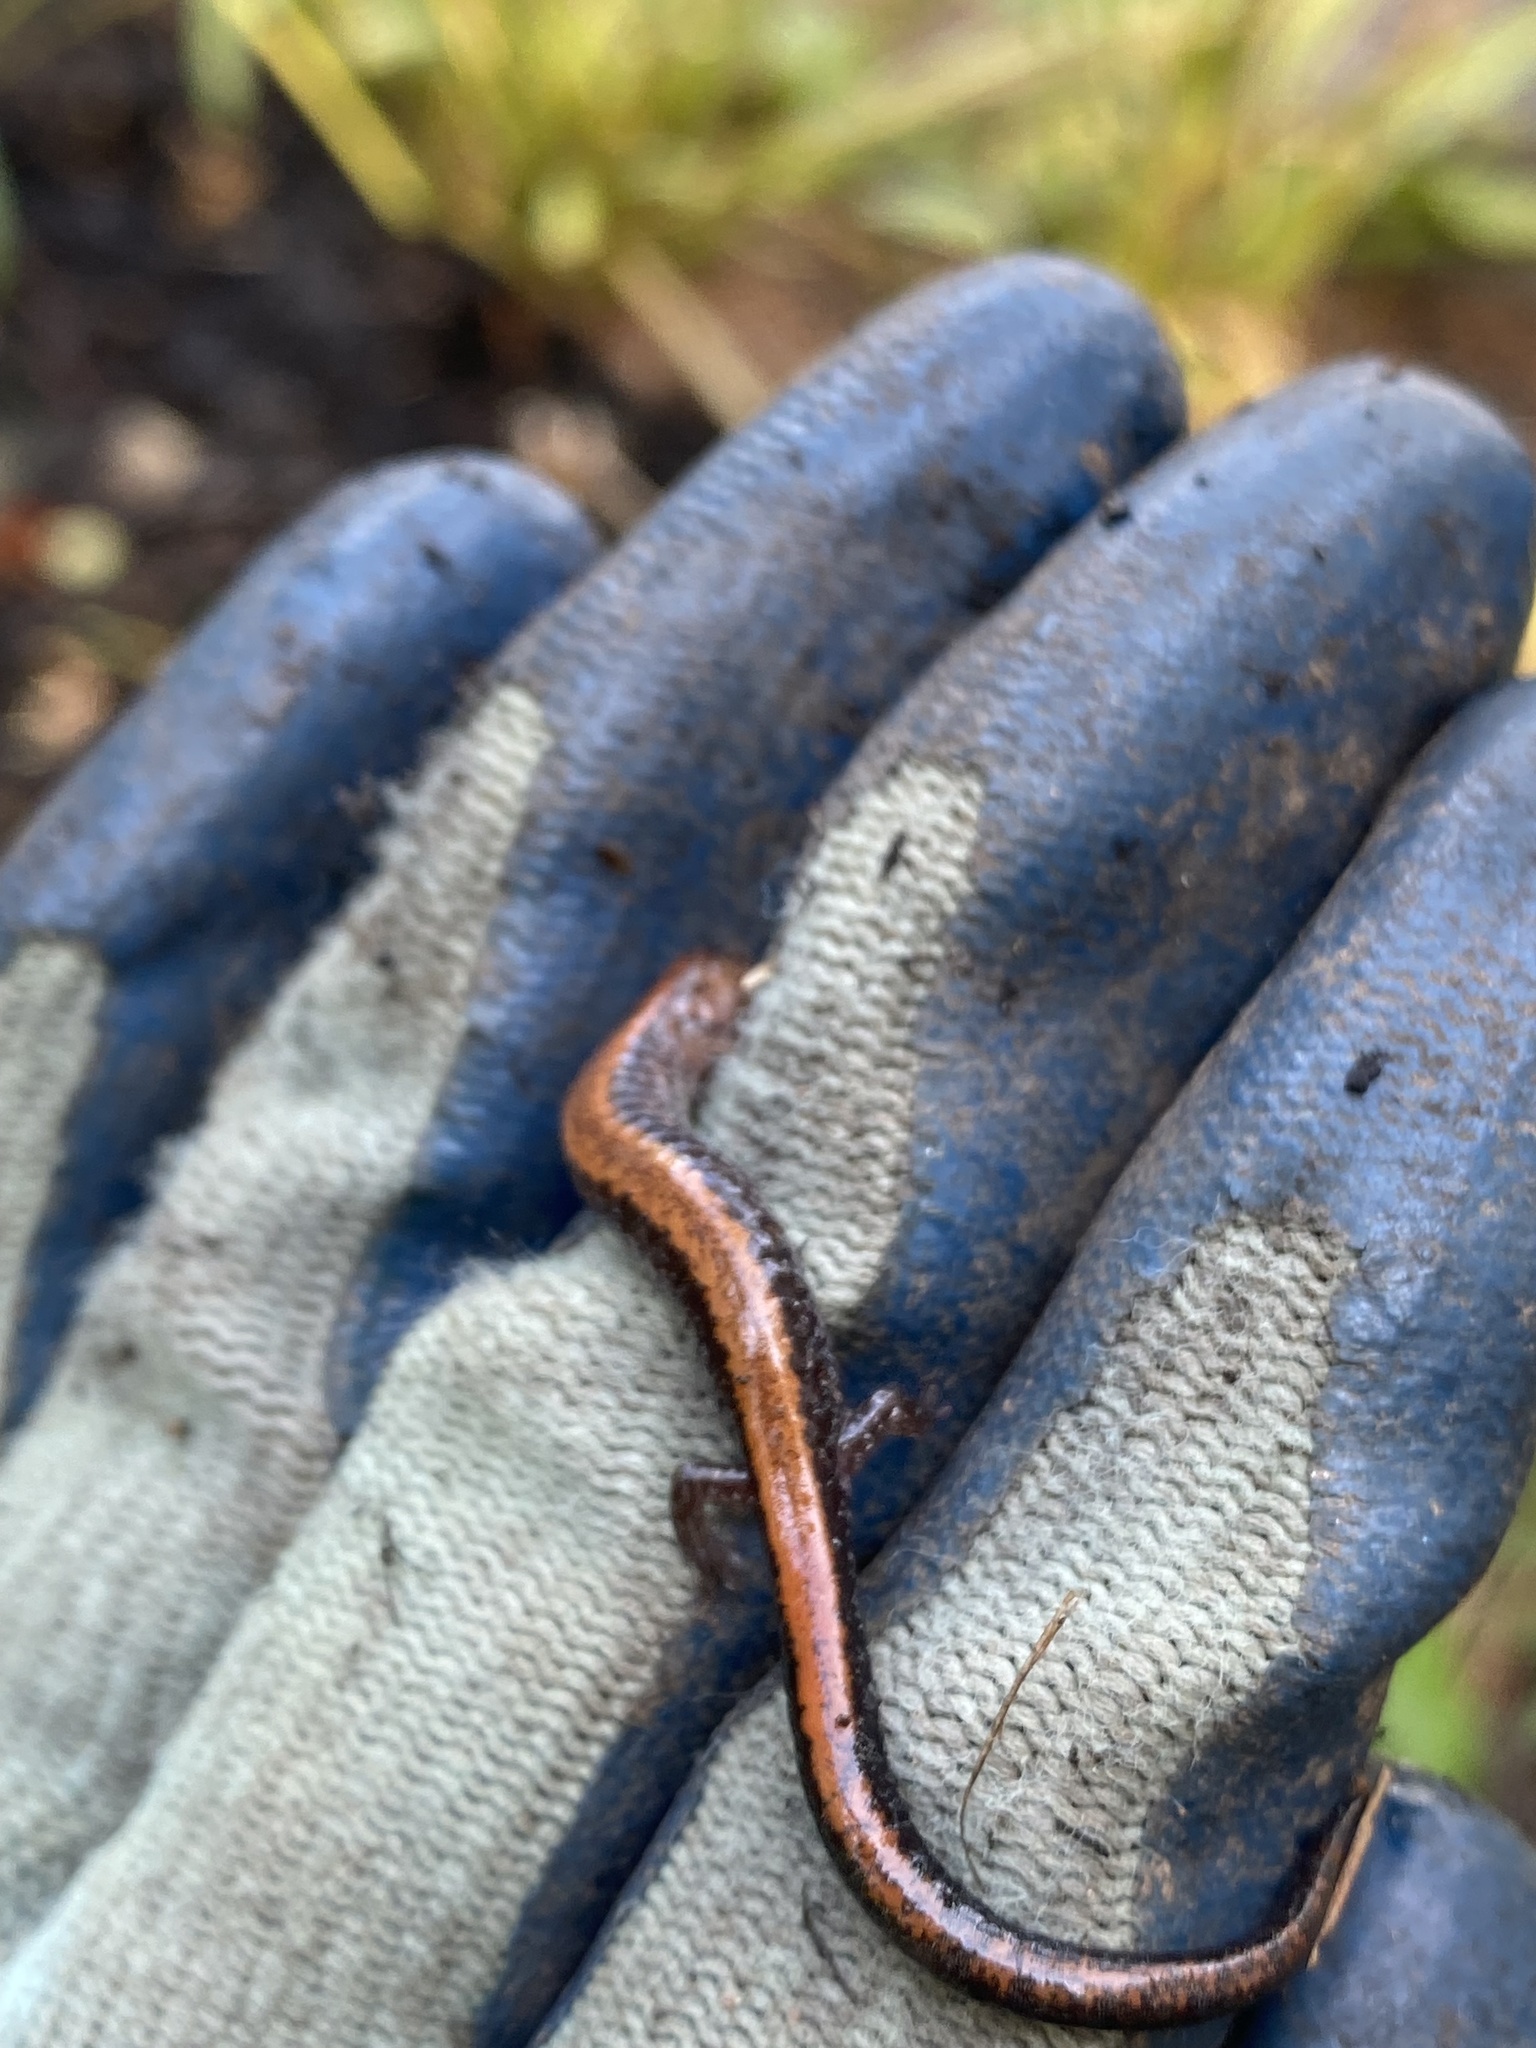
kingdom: Animalia
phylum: Chordata
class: Amphibia
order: Caudata
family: Plethodontidae
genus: Plethodon
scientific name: Plethodon cinereus
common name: Redback salamander
